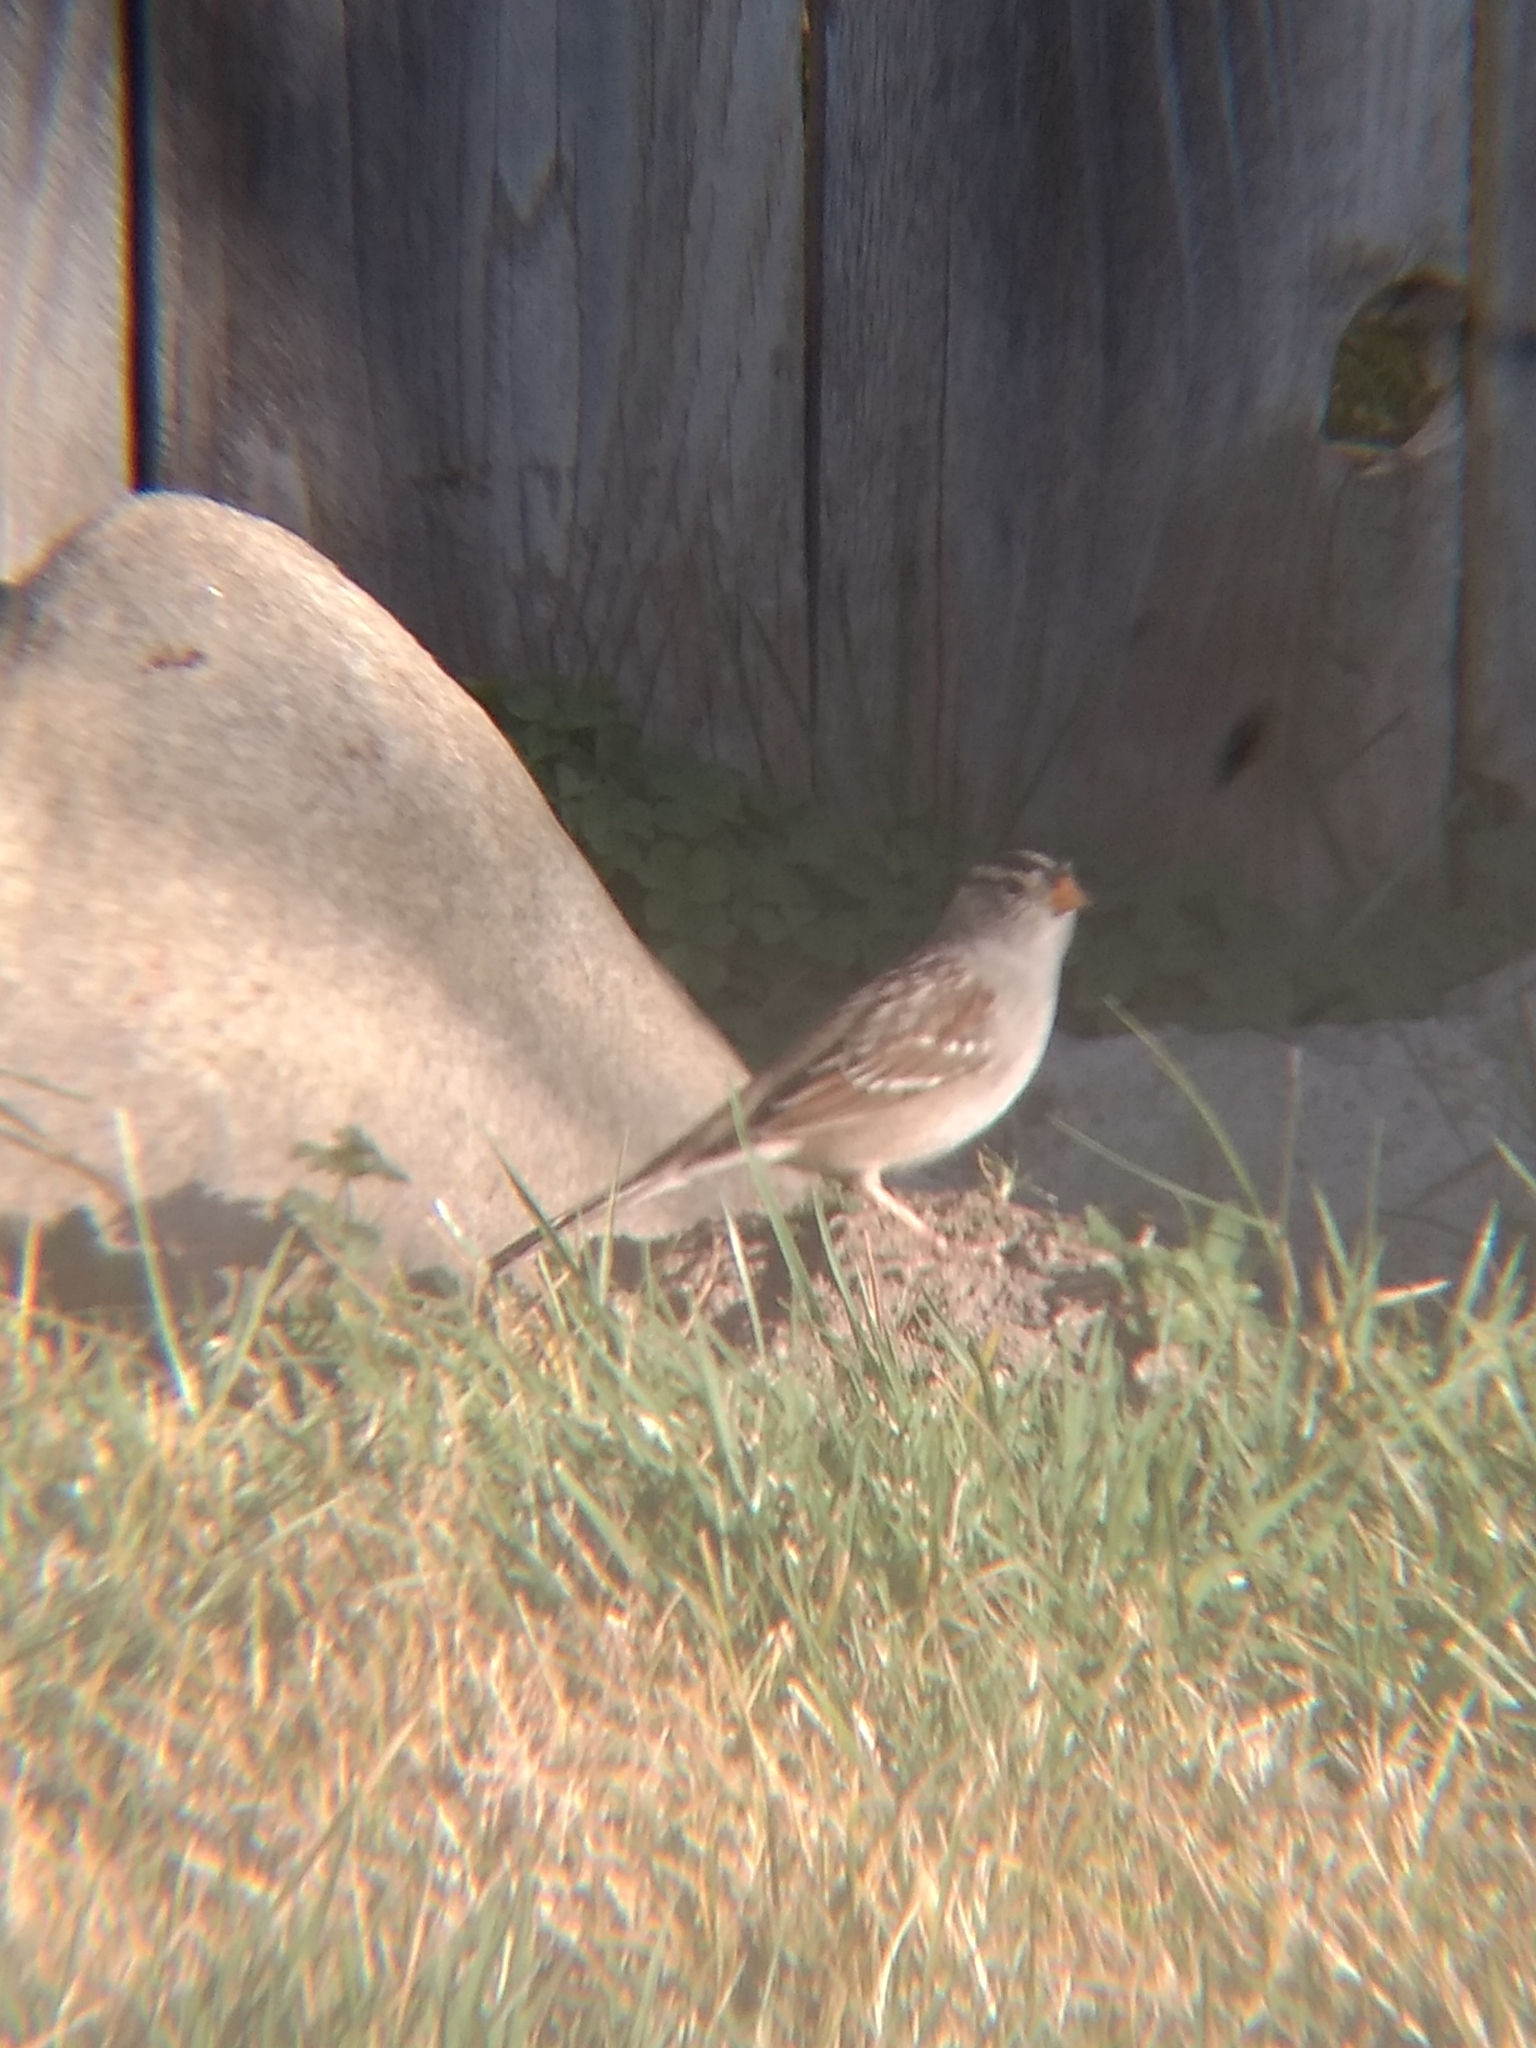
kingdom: Animalia
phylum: Chordata
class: Aves
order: Passeriformes
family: Passerellidae
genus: Zonotrichia
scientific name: Zonotrichia leucophrys
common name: White-crowned sparrow
